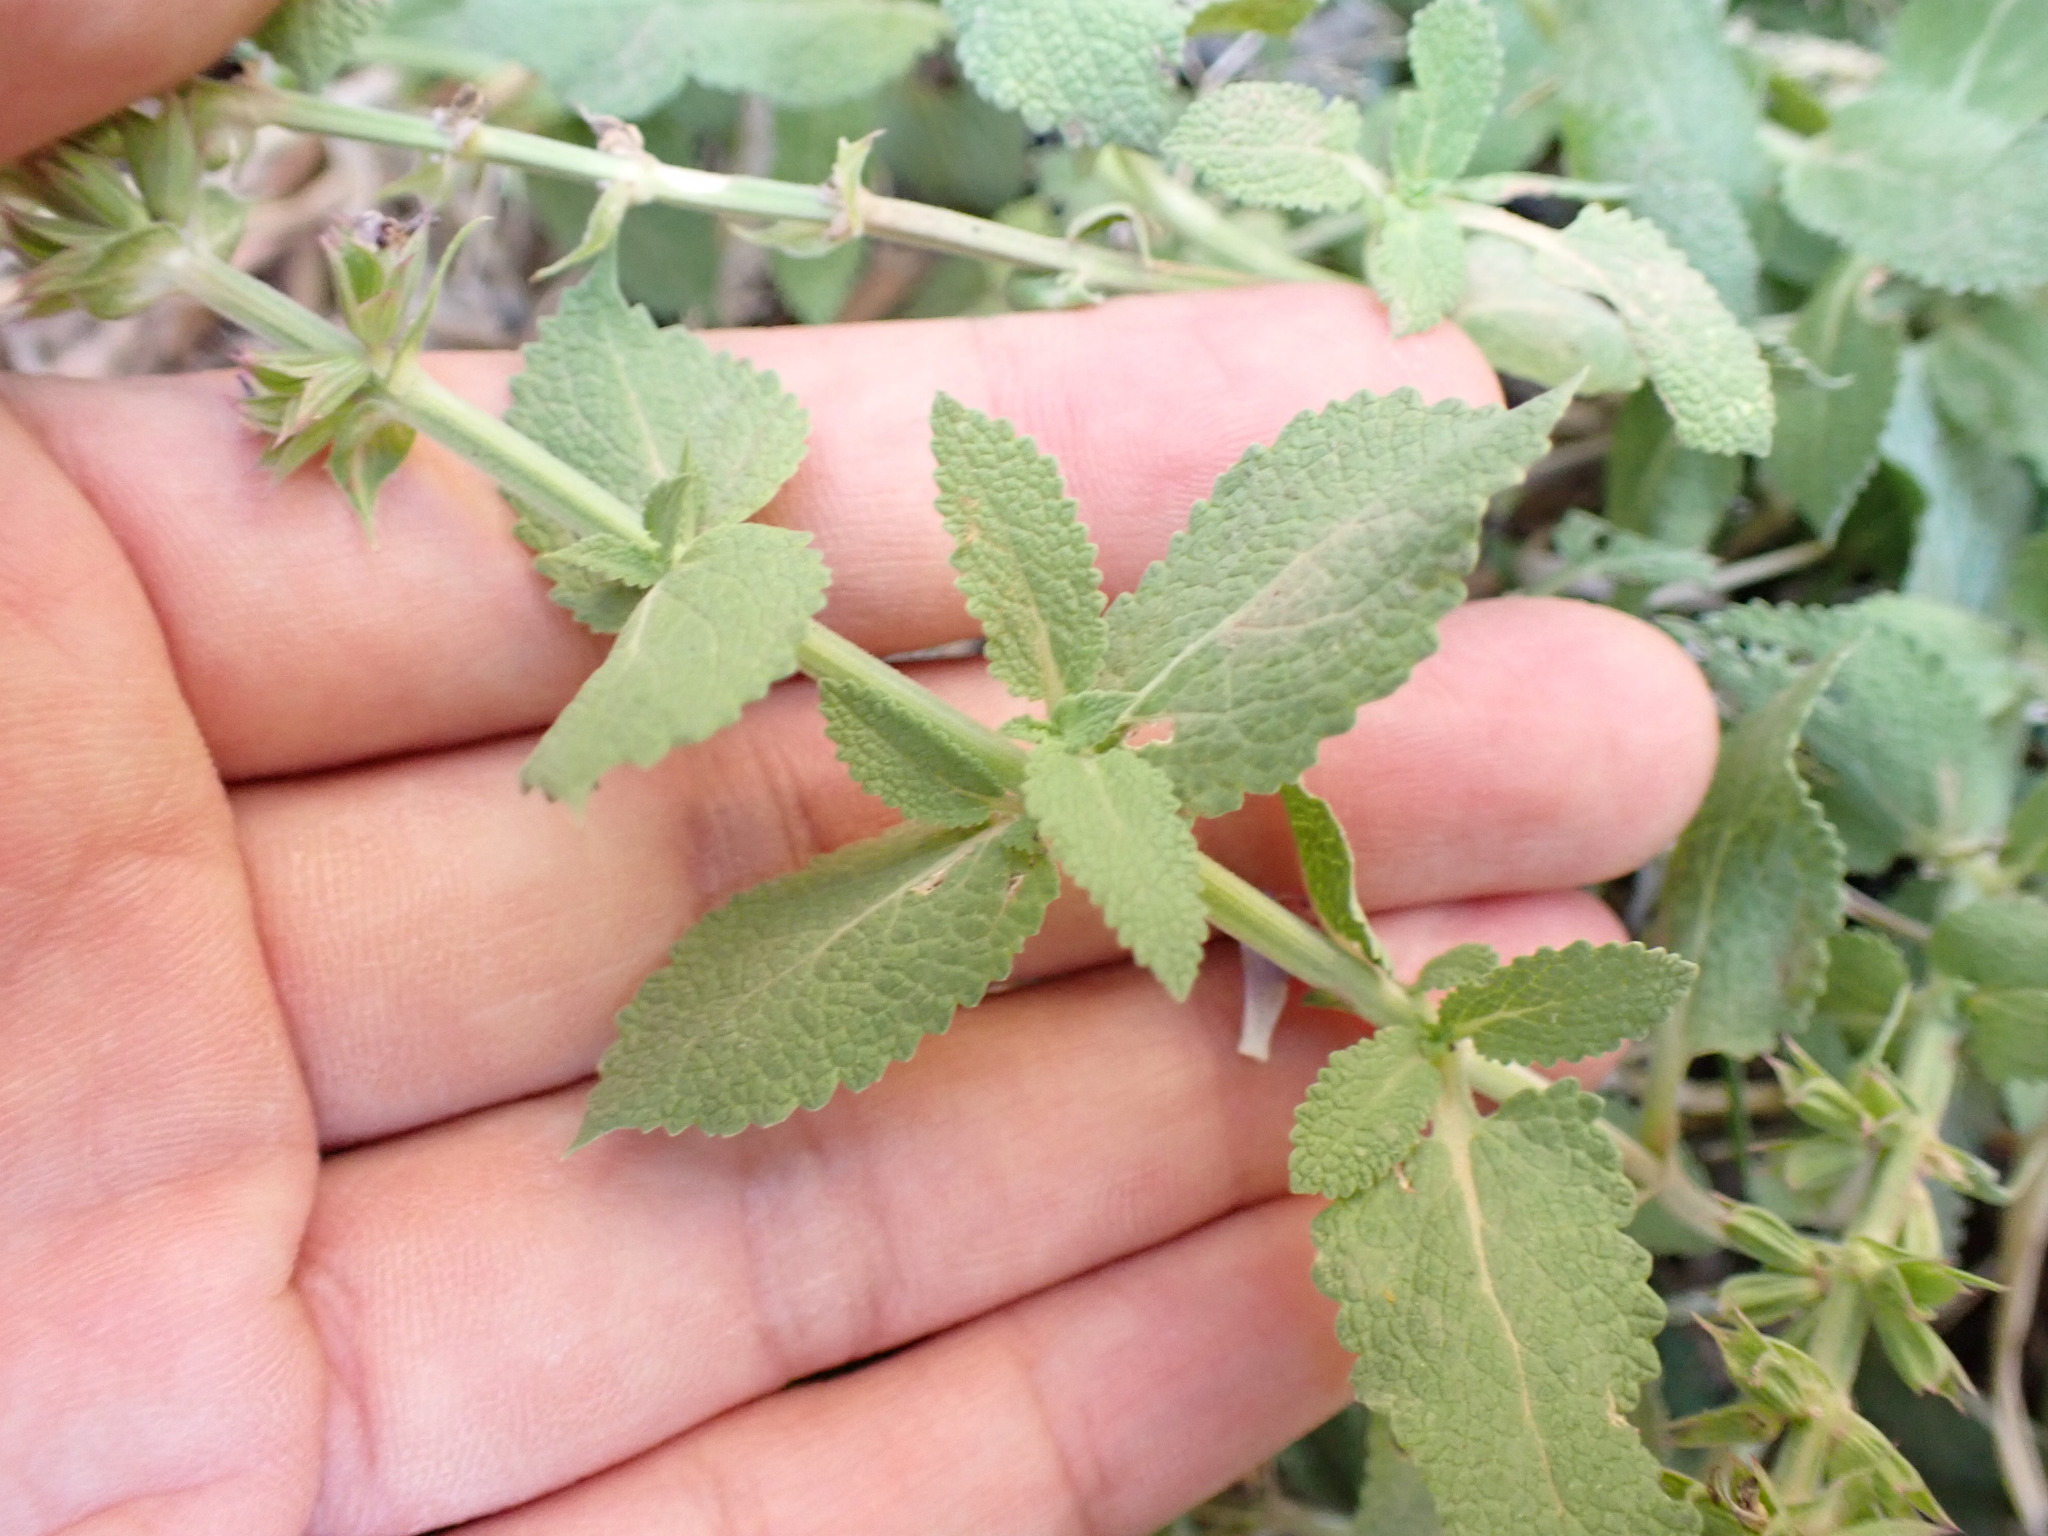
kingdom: Plantae
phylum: Tracheophyta
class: Magnoliopsida
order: Lamiales
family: Lamiaceae
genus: Salvia
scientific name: Salvia verbenaca
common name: Wild clary
